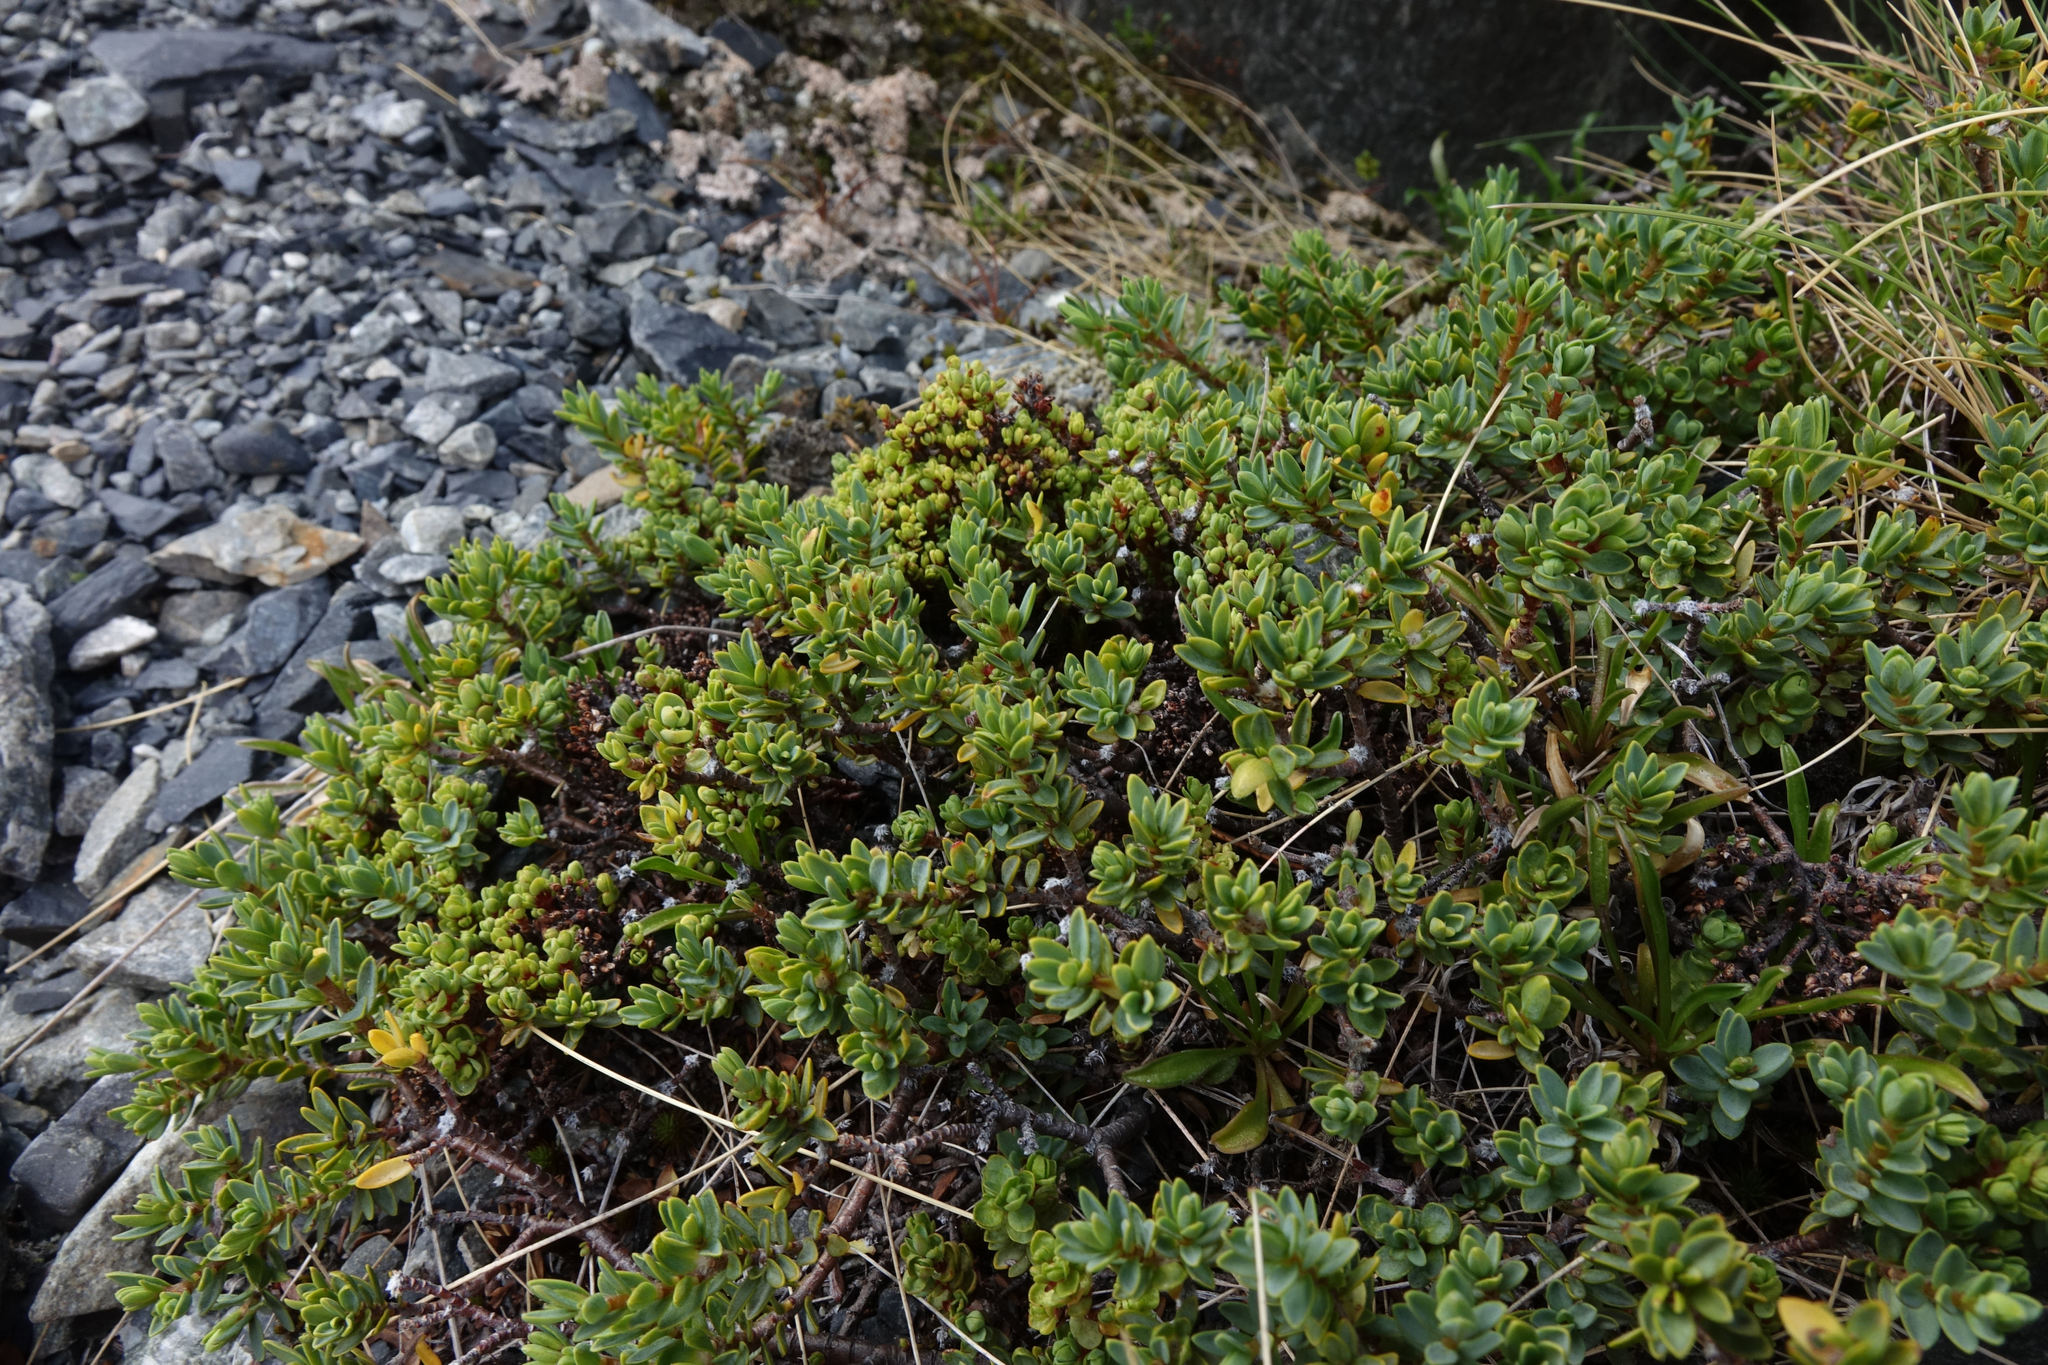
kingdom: Plantae
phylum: Tracheophyta
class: Magnoliopsida
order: Malvales
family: Thymelaeaceae
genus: Pimelea
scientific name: Pimelea notia
